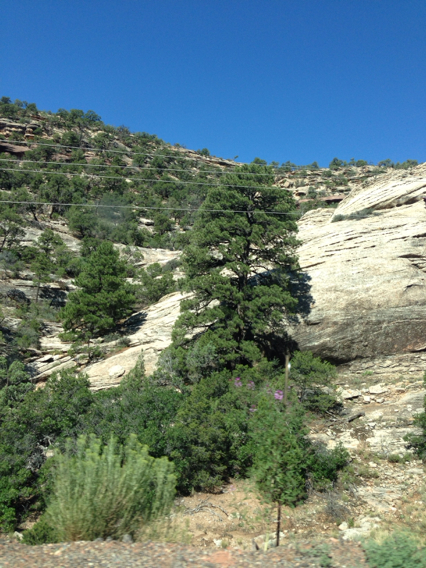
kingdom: Plantae
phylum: Tracheophyta
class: Pinopsida
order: Pinales
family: Pinaceae
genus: Pinus
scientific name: Pinus ponderosa
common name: Western yellow-pine
